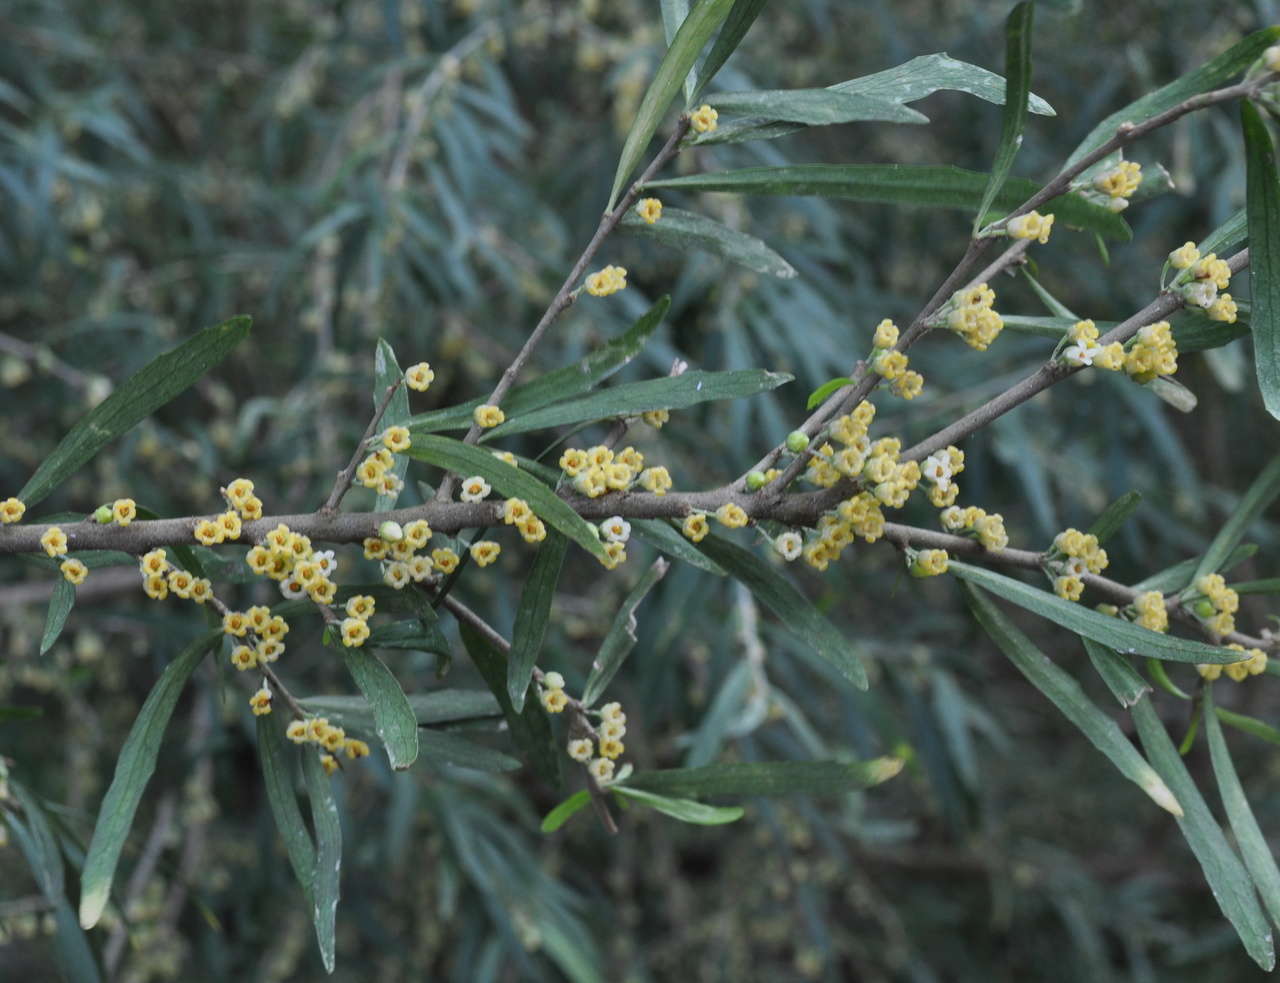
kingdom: Plantae
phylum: Tracheophyta
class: Magnoliopsida
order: Malpighiales
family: Violaceae
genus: Melicytus
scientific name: Melicytus dentatus
